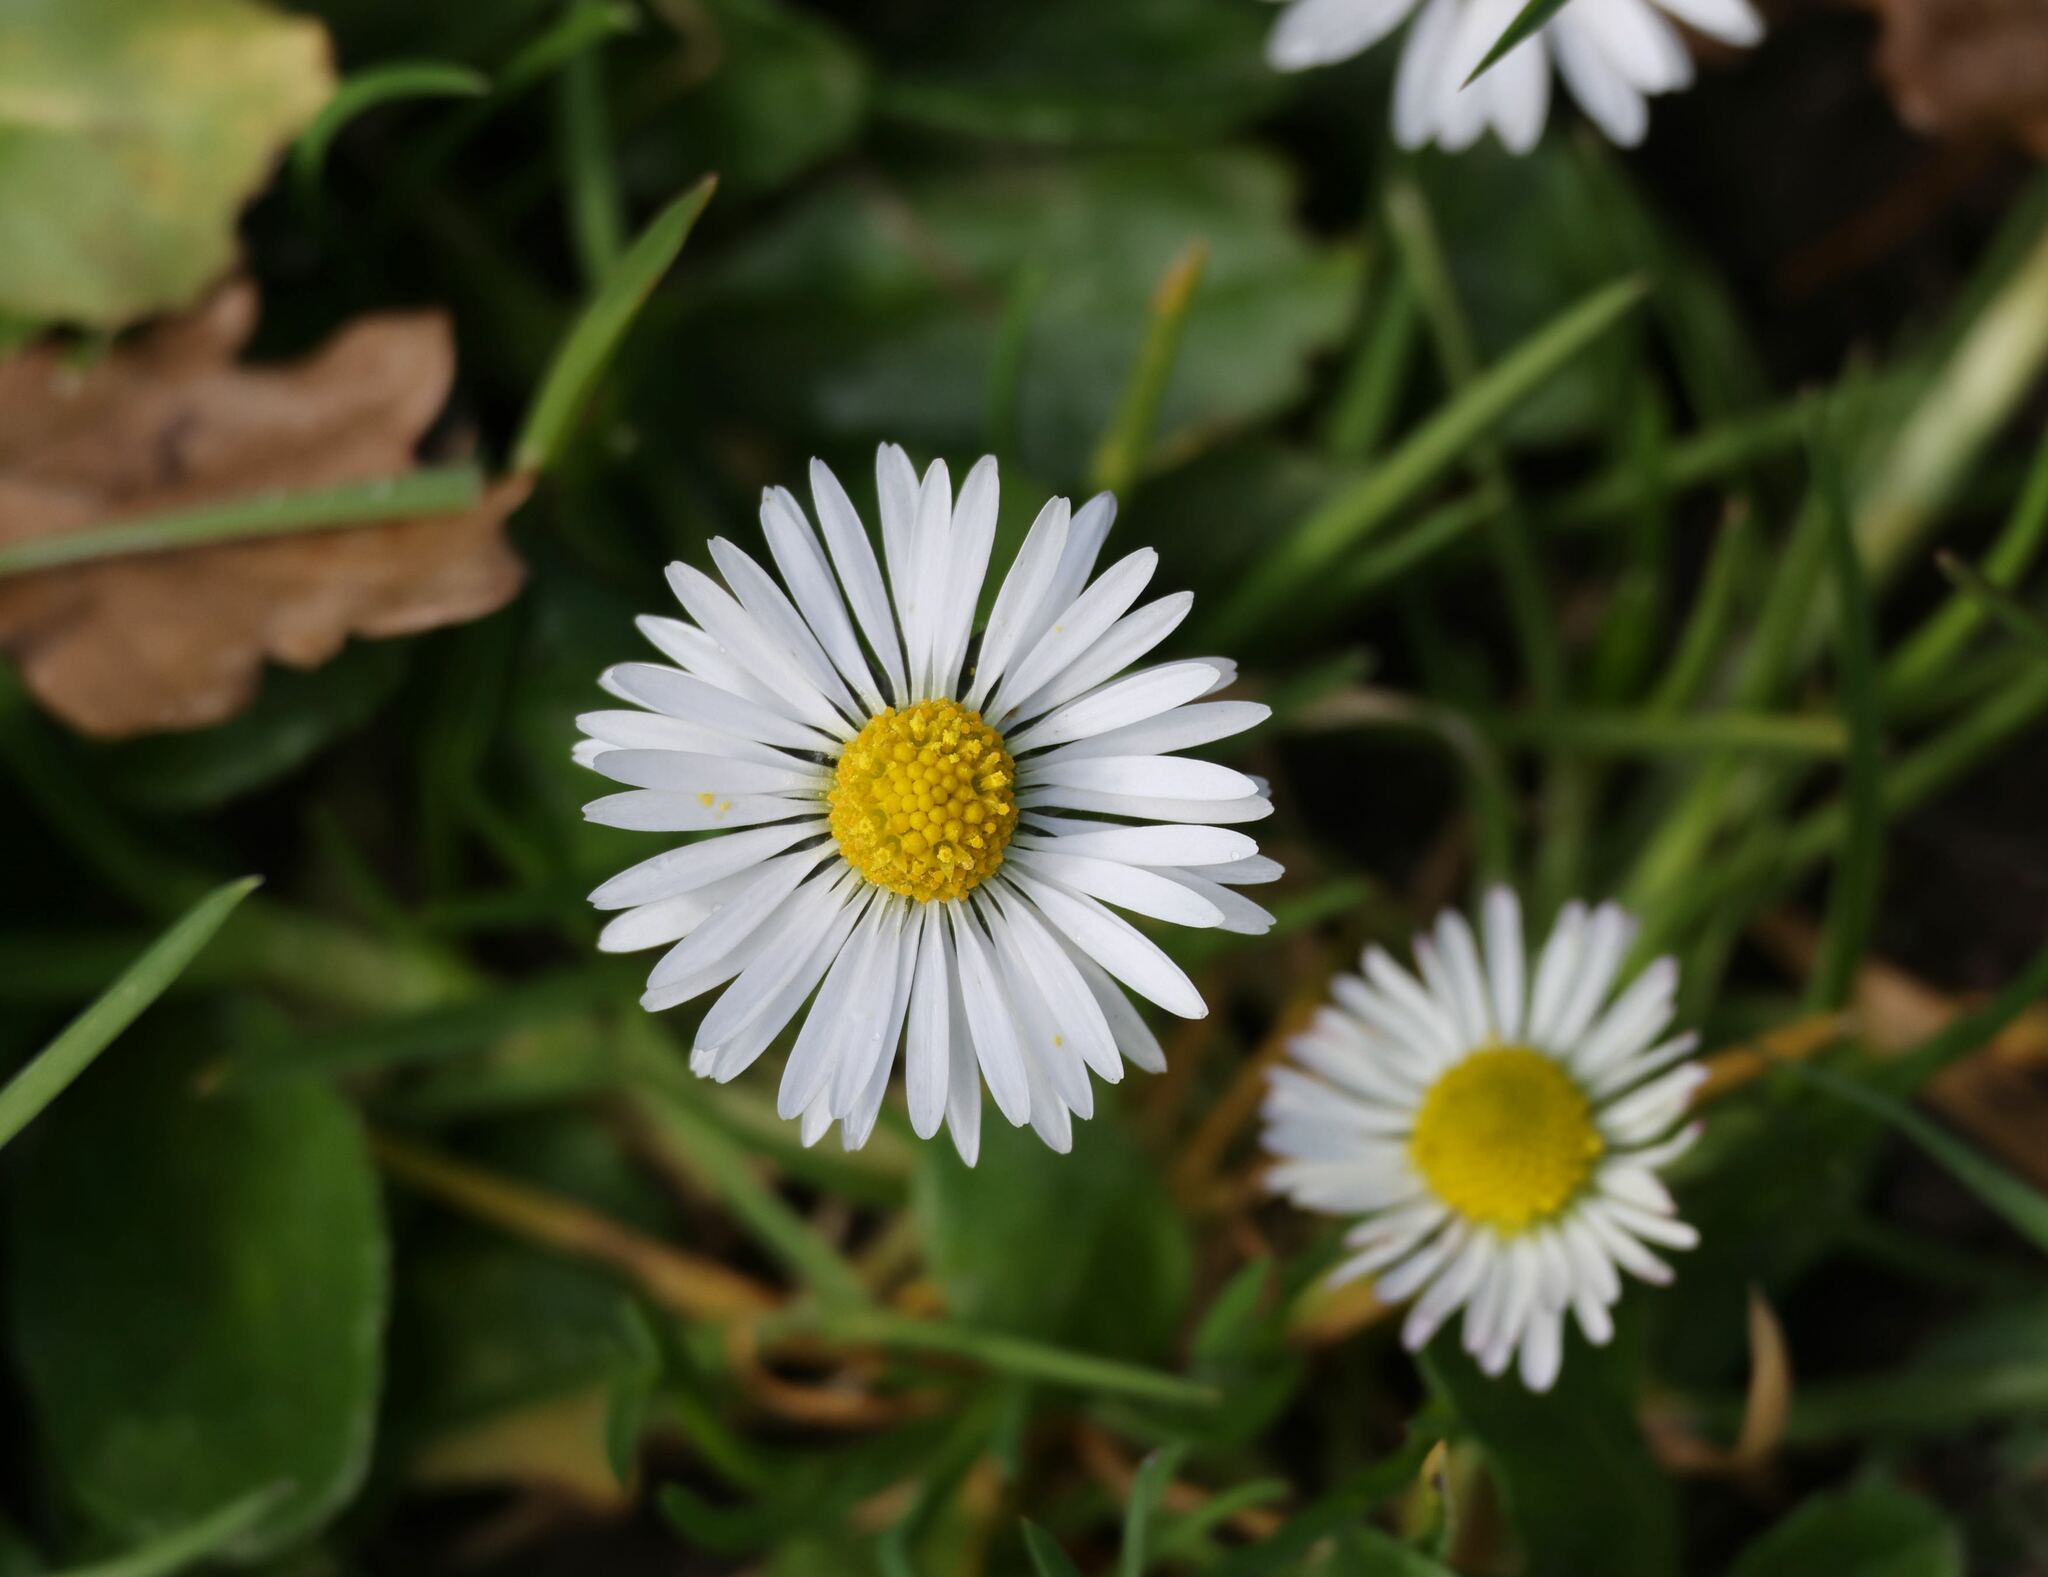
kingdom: Plantae
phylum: Tracheophyta
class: Magnoliopsida
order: Asterales
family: Asteraceae
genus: Bellis
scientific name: Bellis perennis
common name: Lawndaisy
